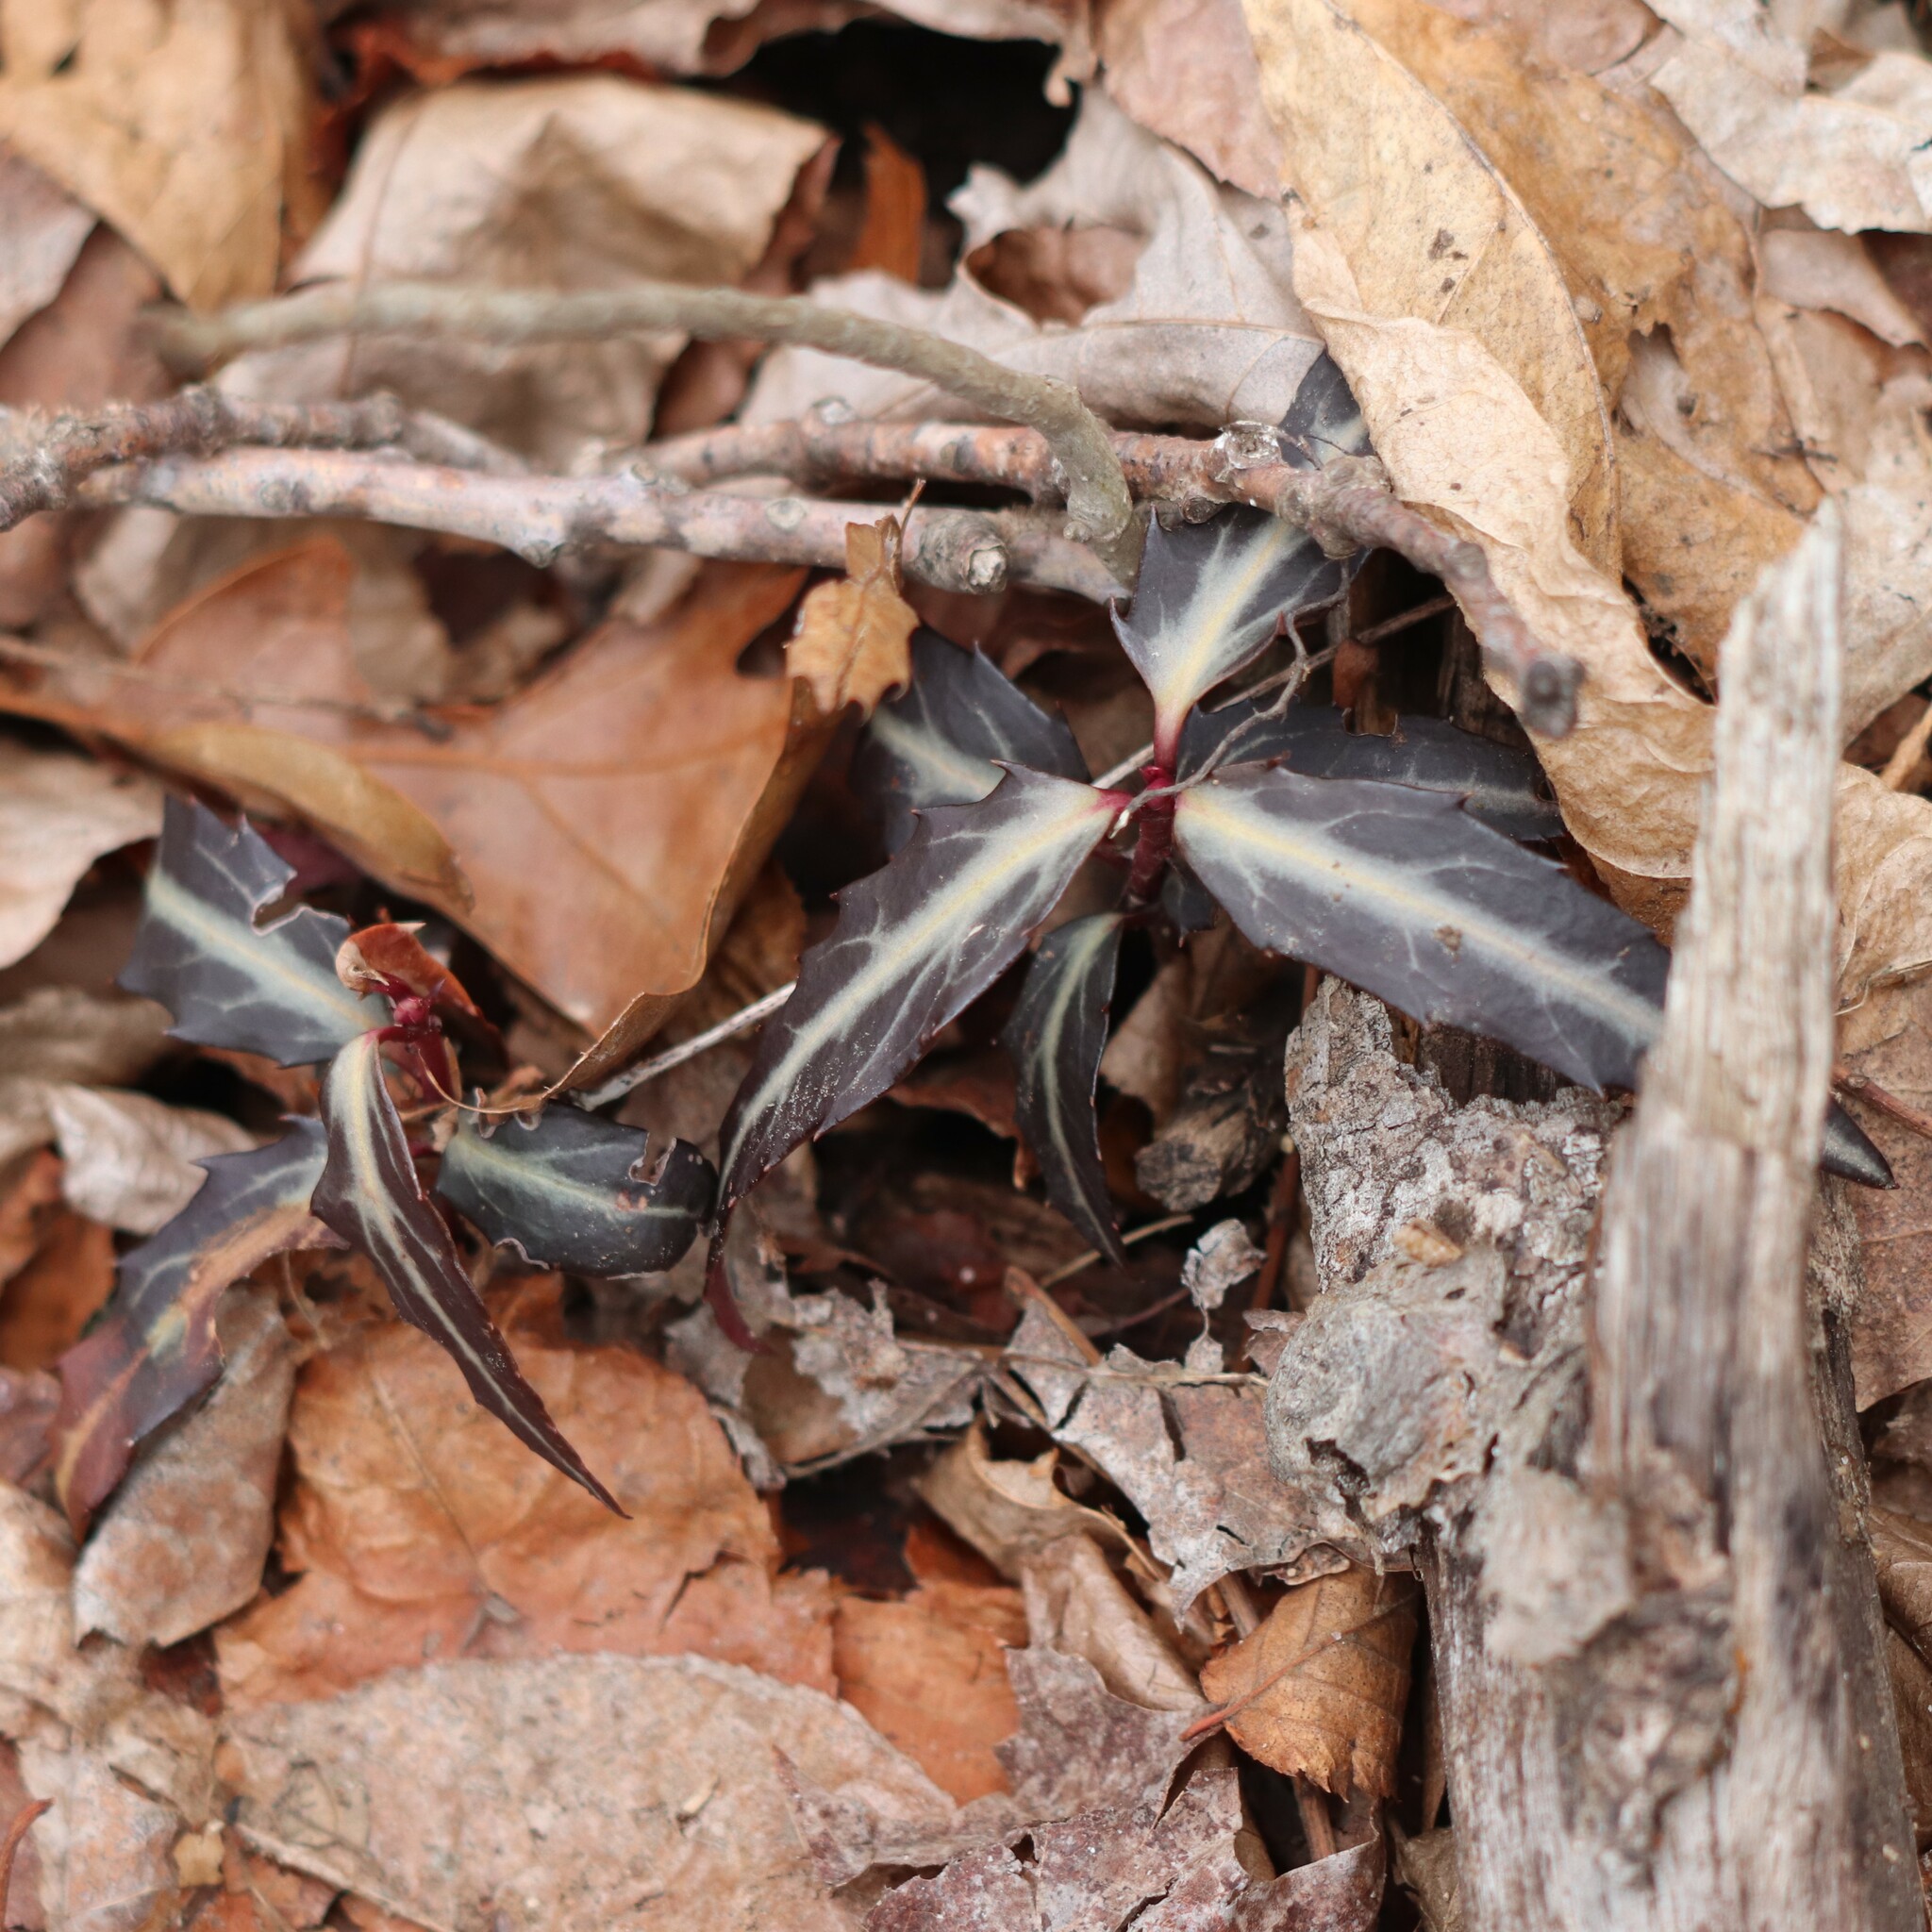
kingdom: Plantae
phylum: Tracheophyta
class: Magnoliopsida
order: Ericales
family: Ericaceae
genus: Chimaphila
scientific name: Chimaphila maculata
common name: Spotted pipsissewa
